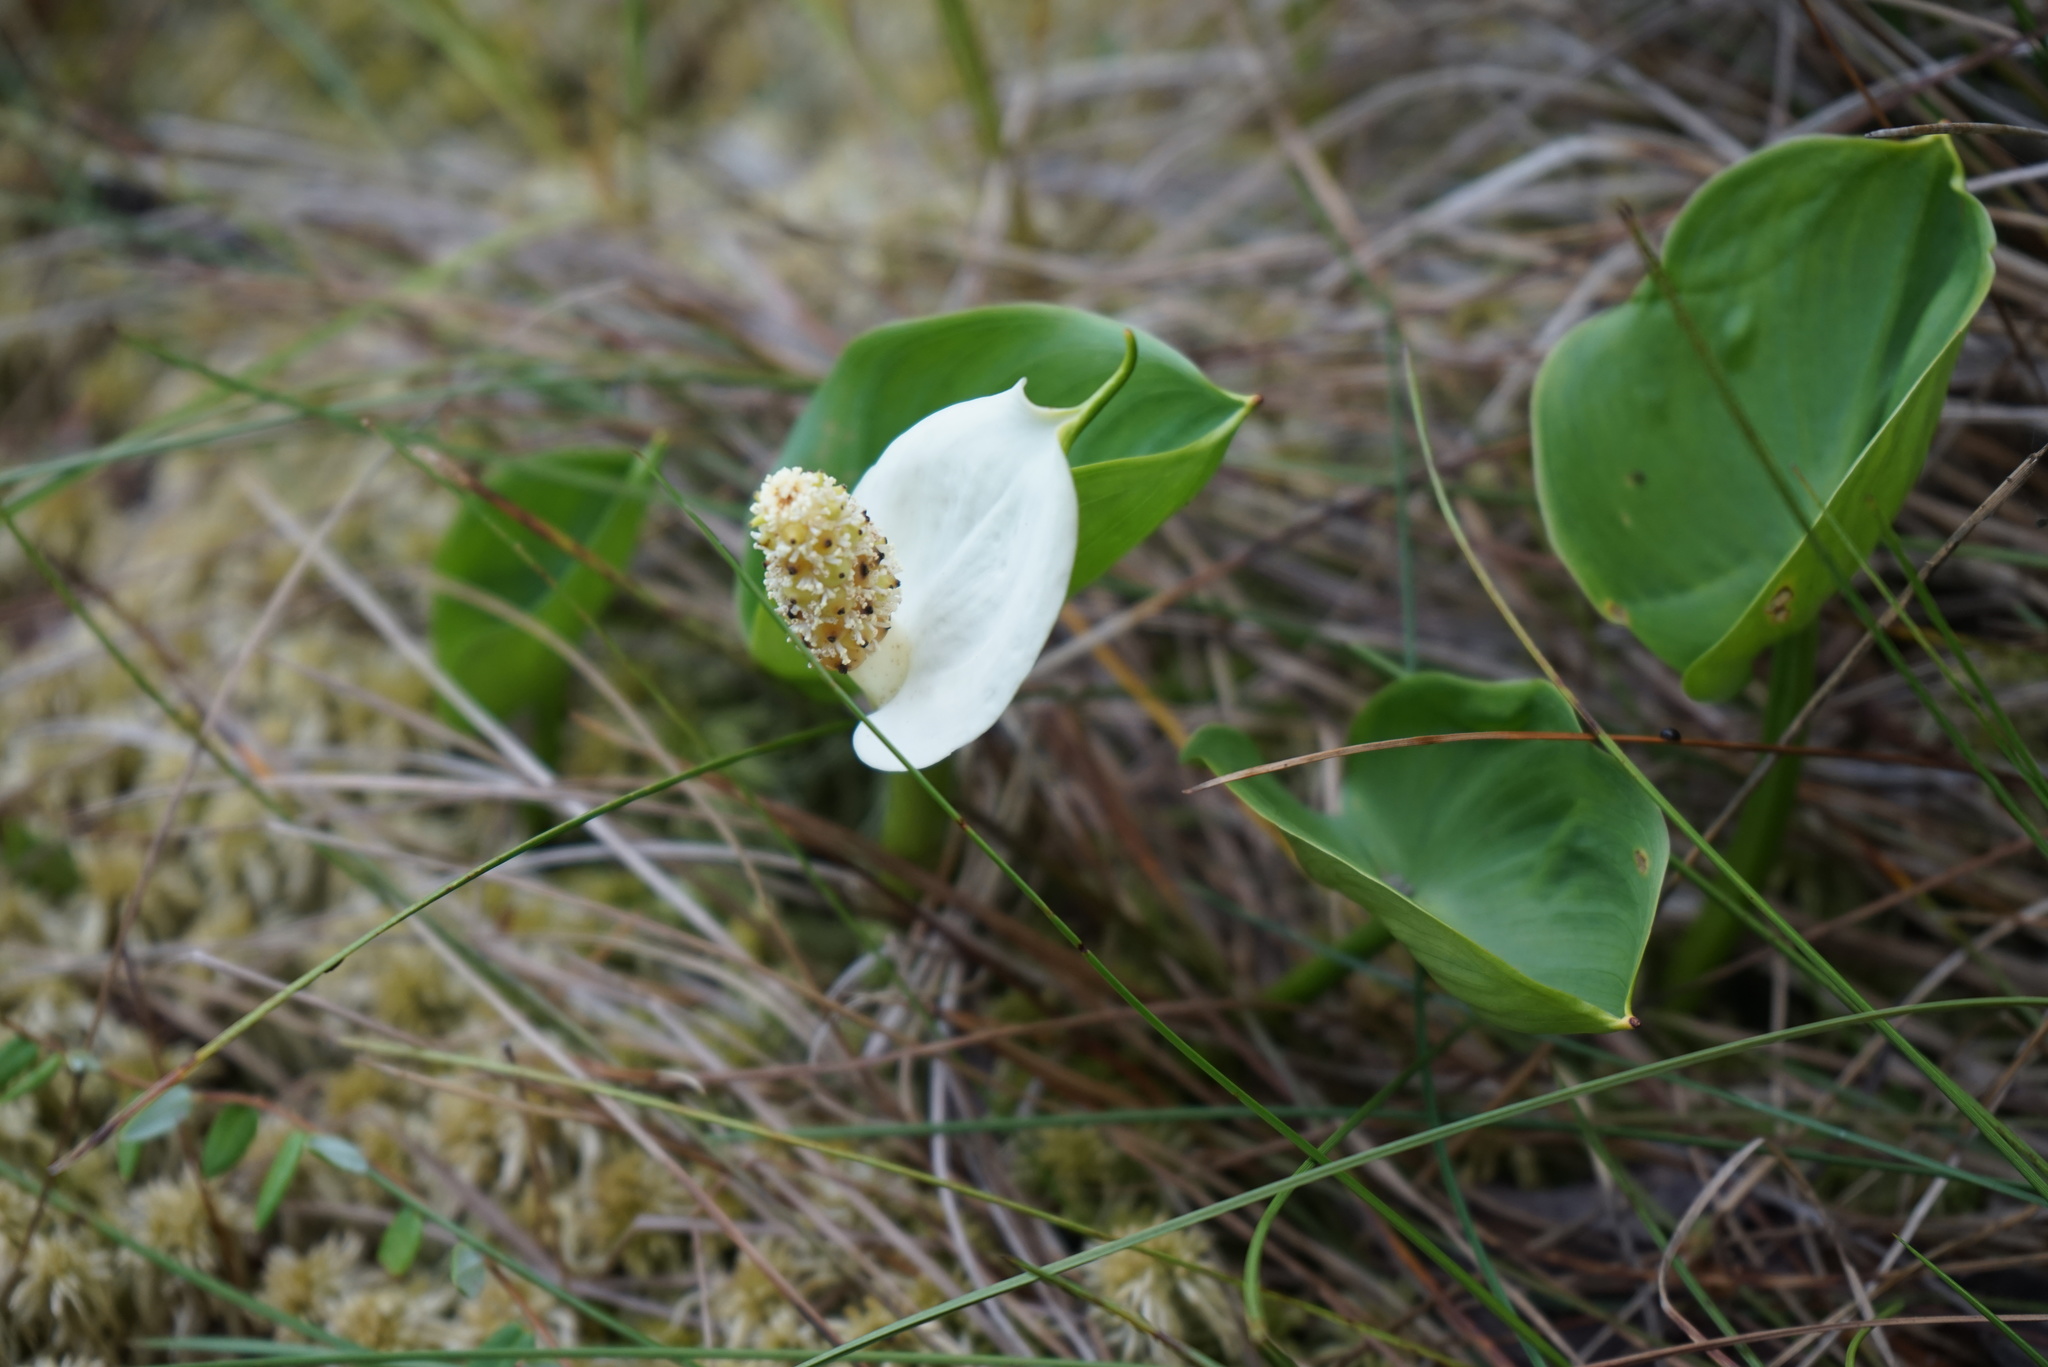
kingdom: Plantae
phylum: Tracheophyta
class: Liliopsida
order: Alismatales
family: Araceae
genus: Calla
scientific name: Calla palustris
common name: Bog arum
